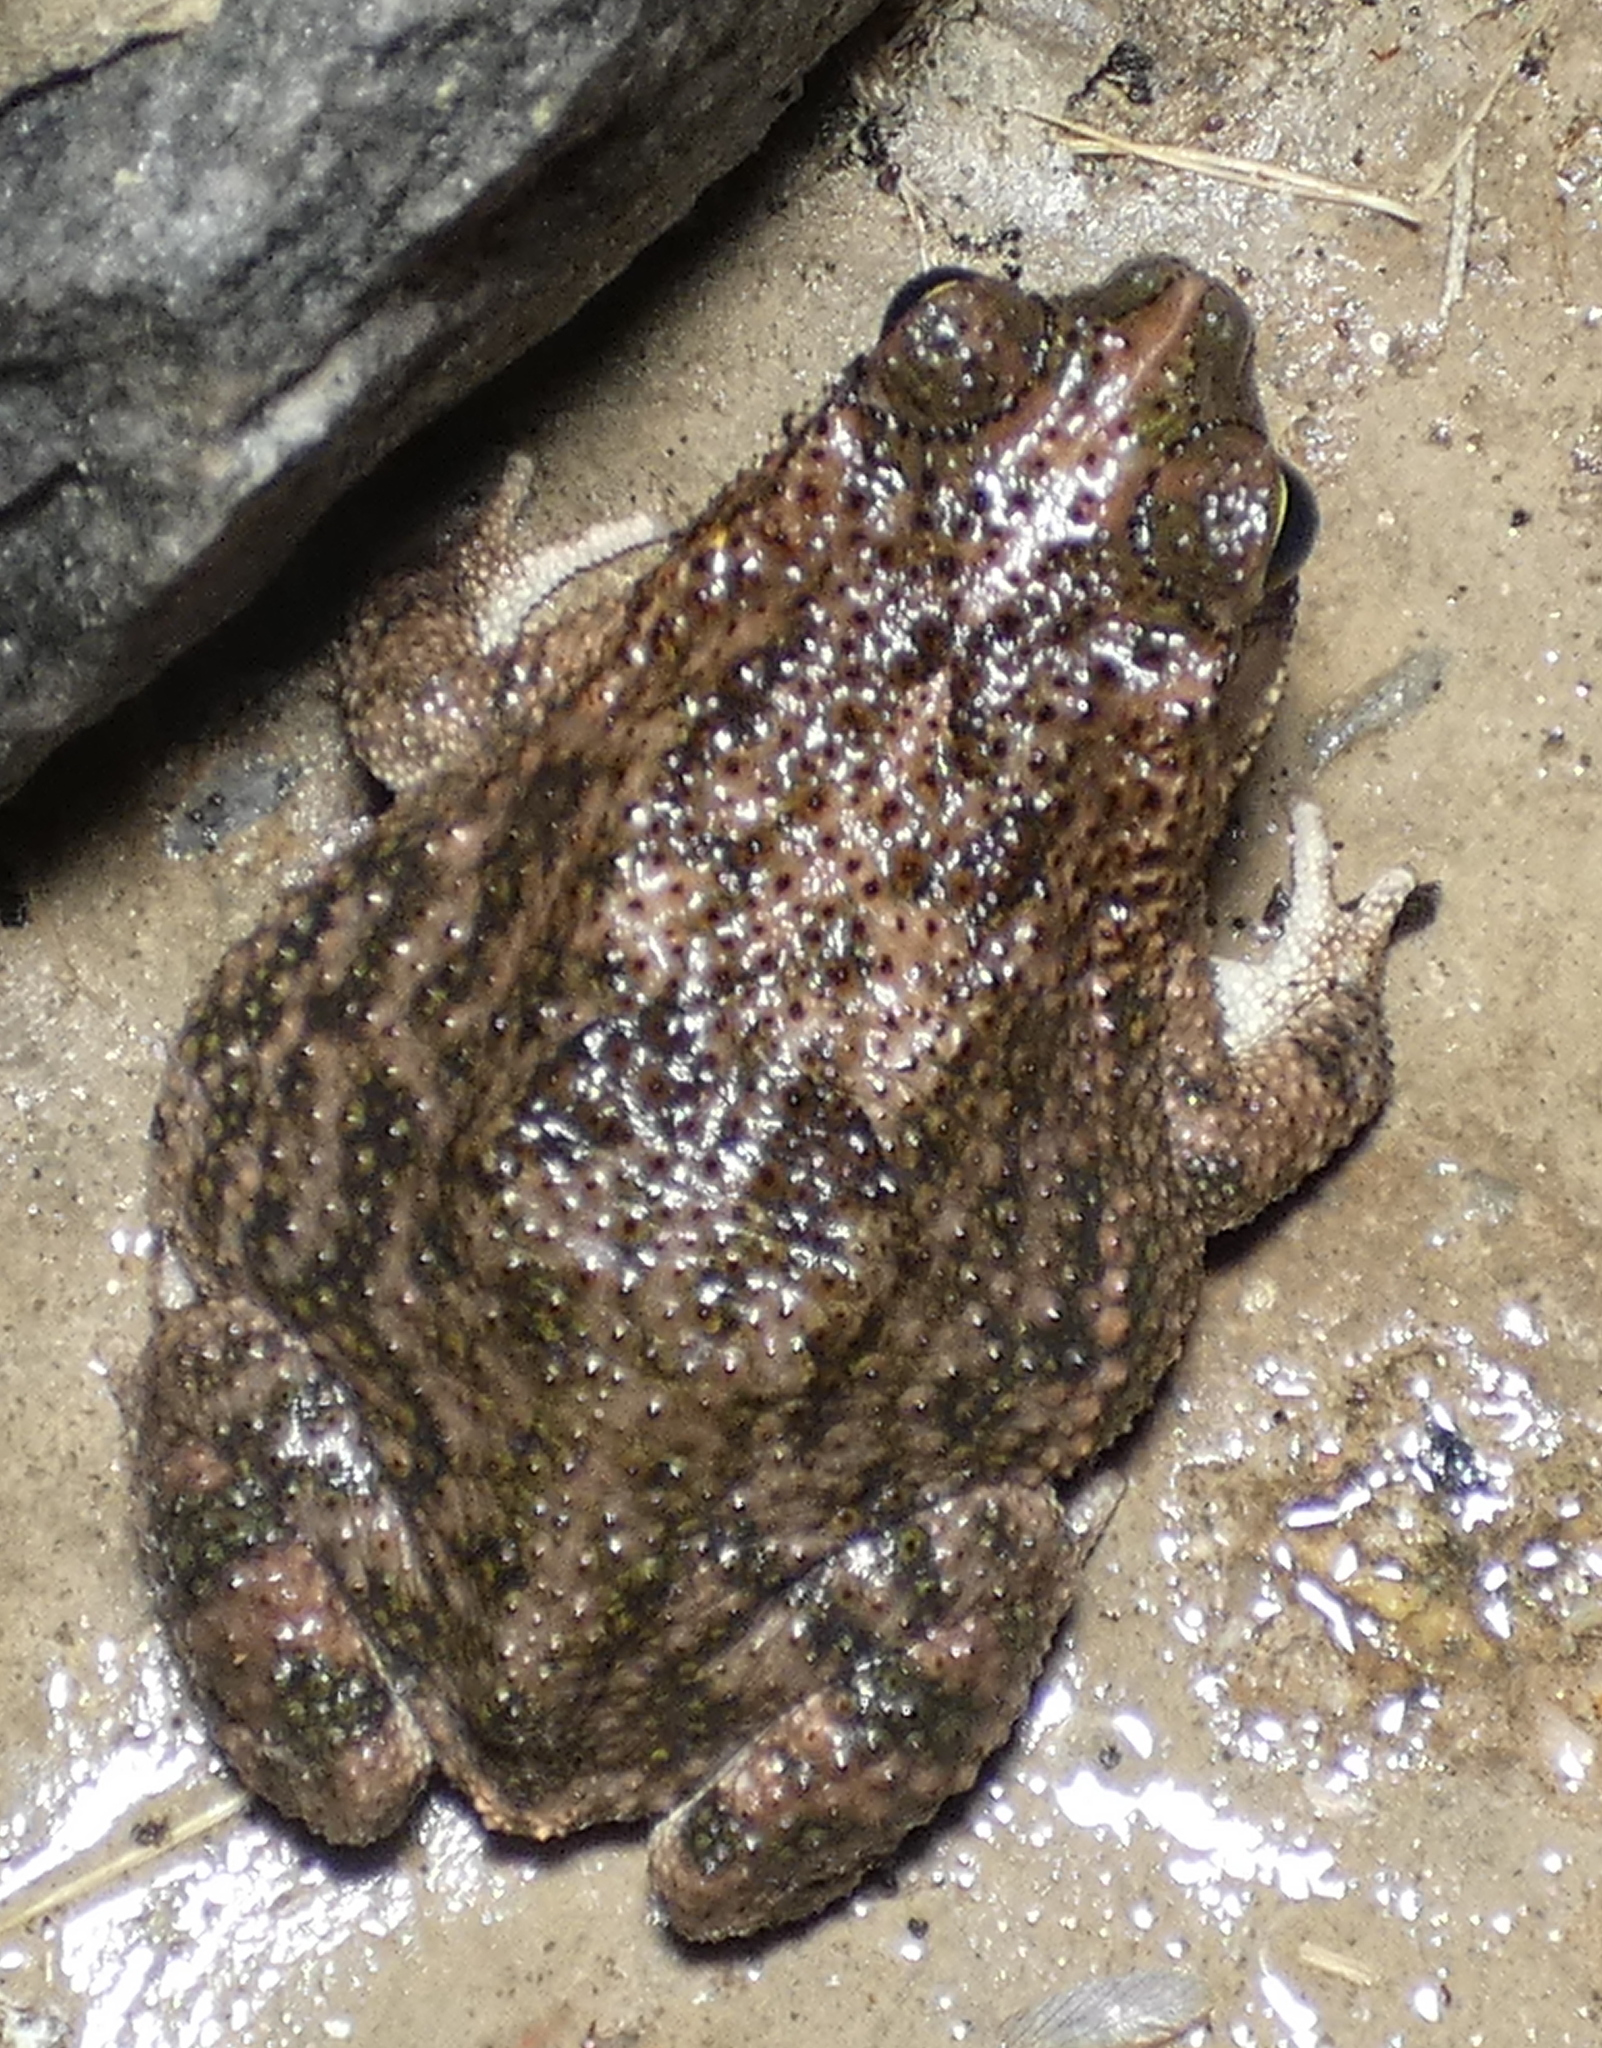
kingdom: Animalia
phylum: Chordata
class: Amphibia
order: Anura
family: Bufonidae
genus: Rhinella
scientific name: Rhinella granulosa
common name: Common lesser toad
